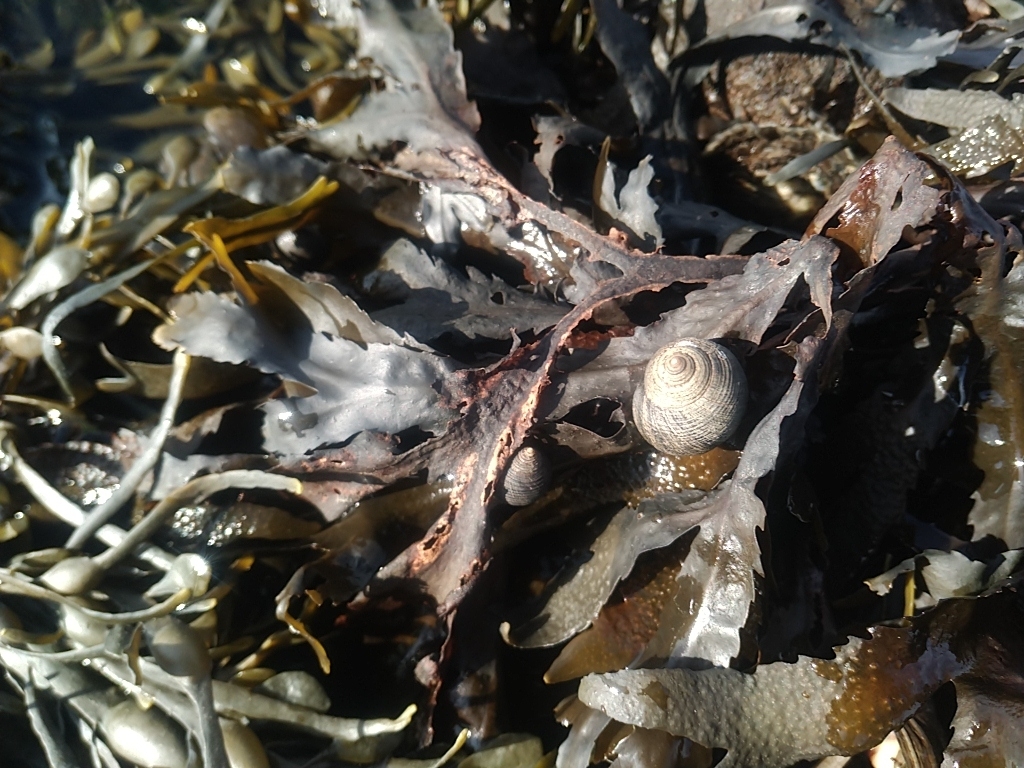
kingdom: Animalia
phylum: Mollusca
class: Gastropoda
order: Littorinimorpha
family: Littorinidae
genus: Littorina
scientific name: Littorina littorea
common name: Common periwinkle
